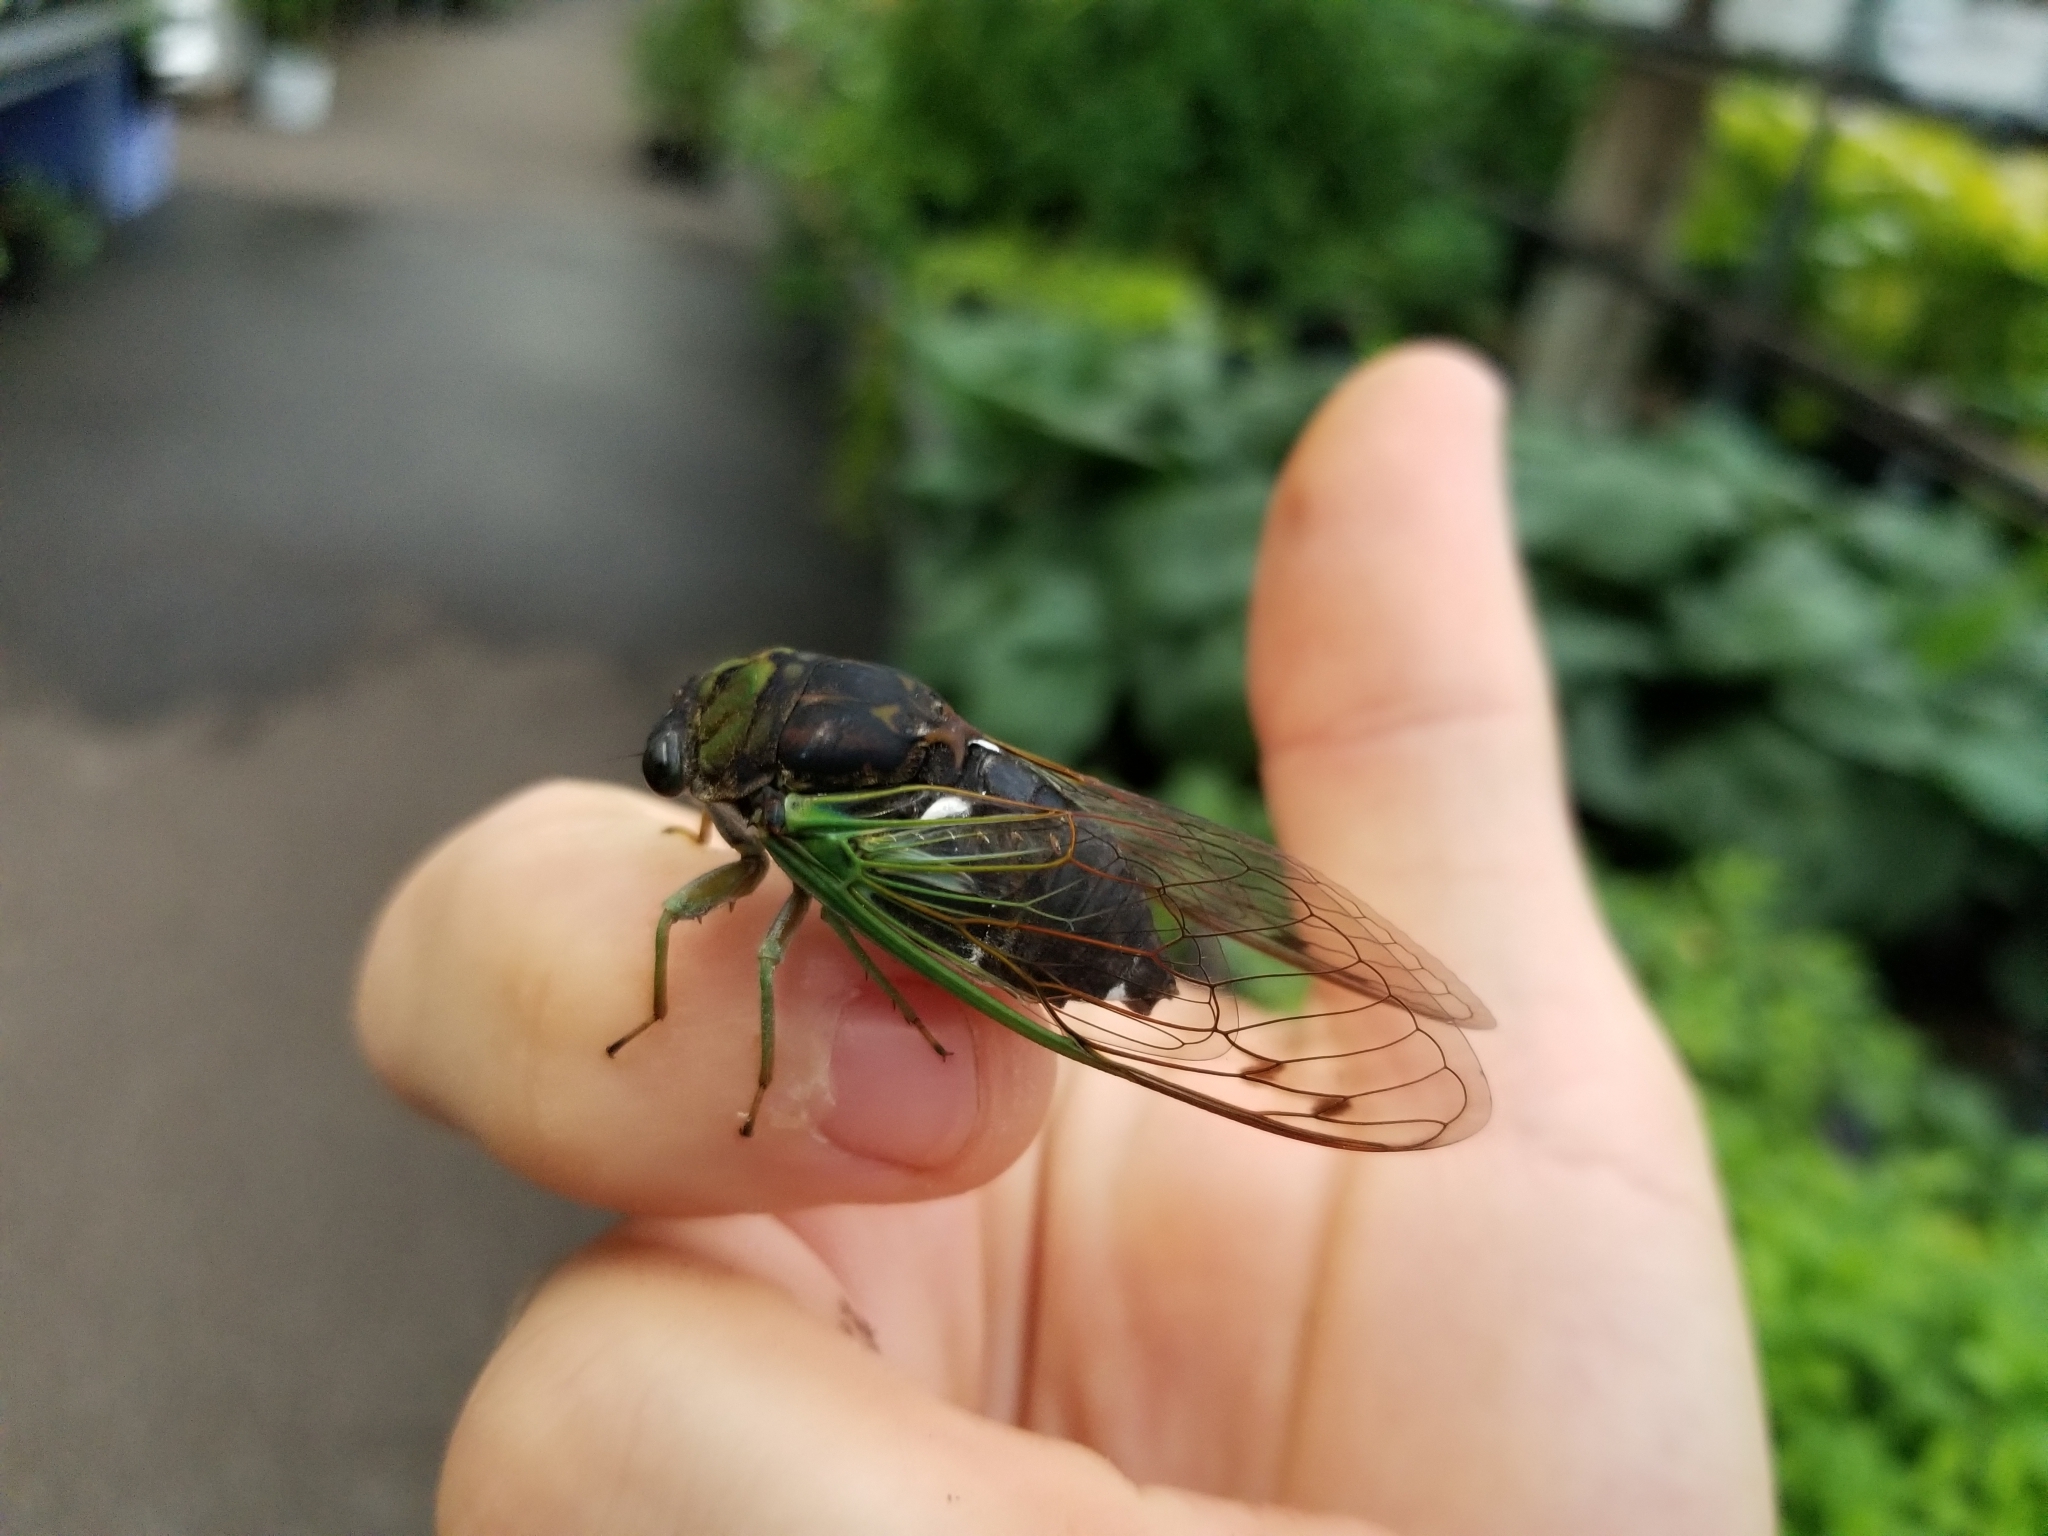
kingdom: Animalia
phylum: Arthropoda
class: Insecta
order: Hemiptera
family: Cicadidae
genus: Neotibicen
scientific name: Neotibicen tibicen
